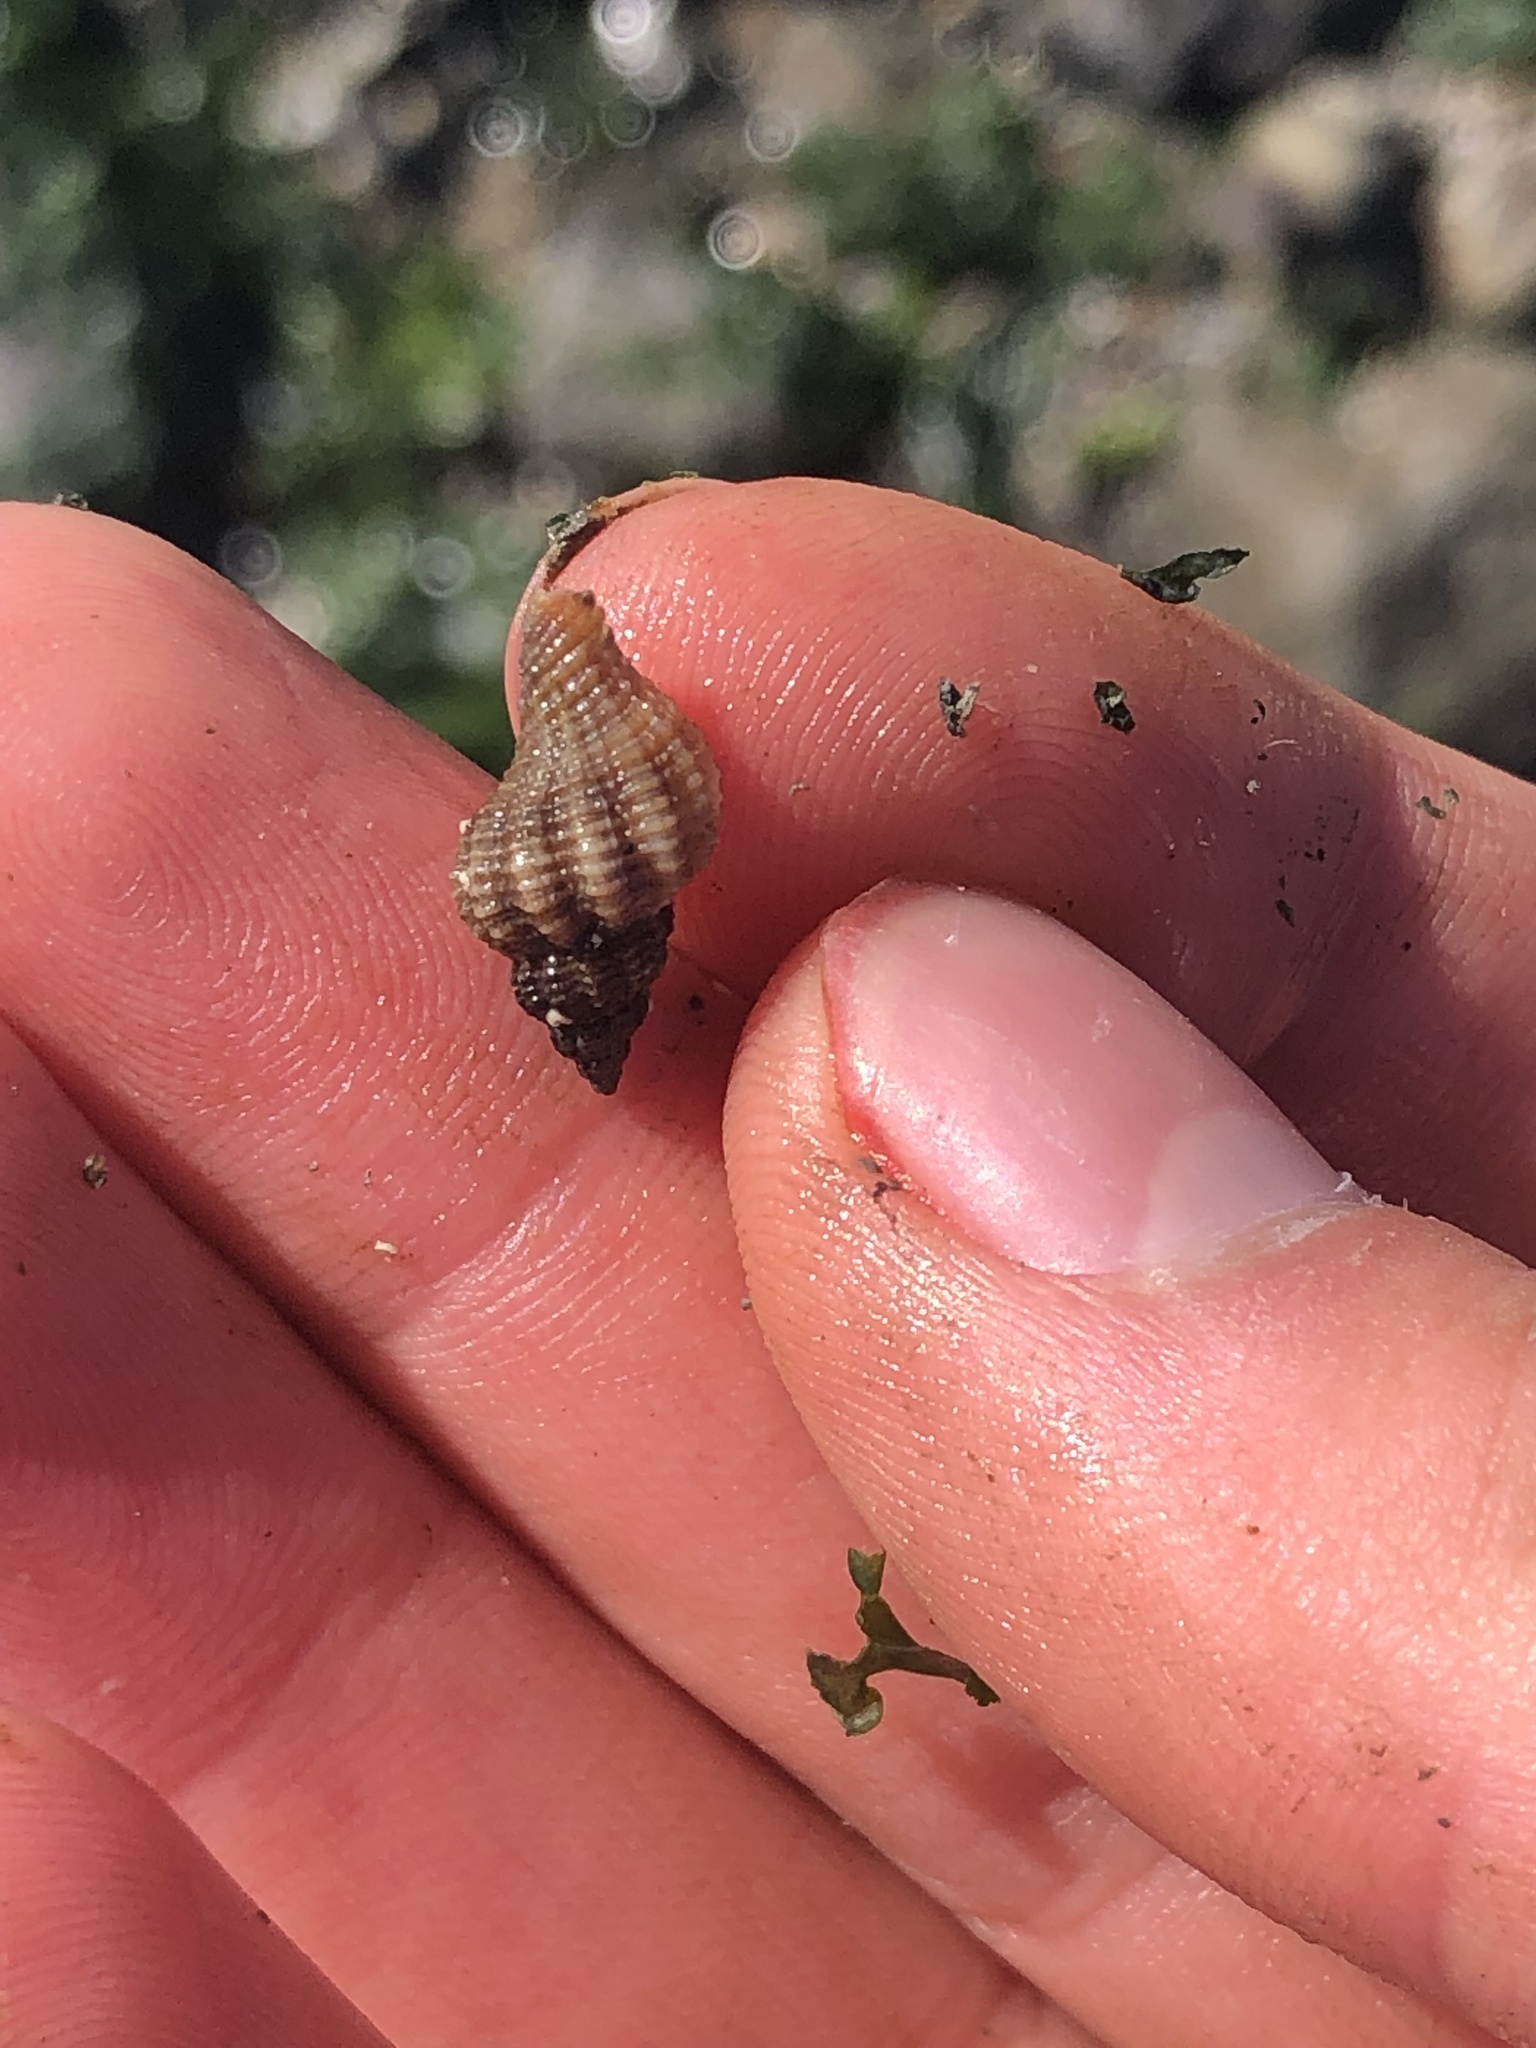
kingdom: Animalia
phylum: Mollusca
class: Gastropoda
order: Neogastropoda
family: Muricidae
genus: Urosalpinx
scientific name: Urosalpinx cinerea
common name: American sting winkle
